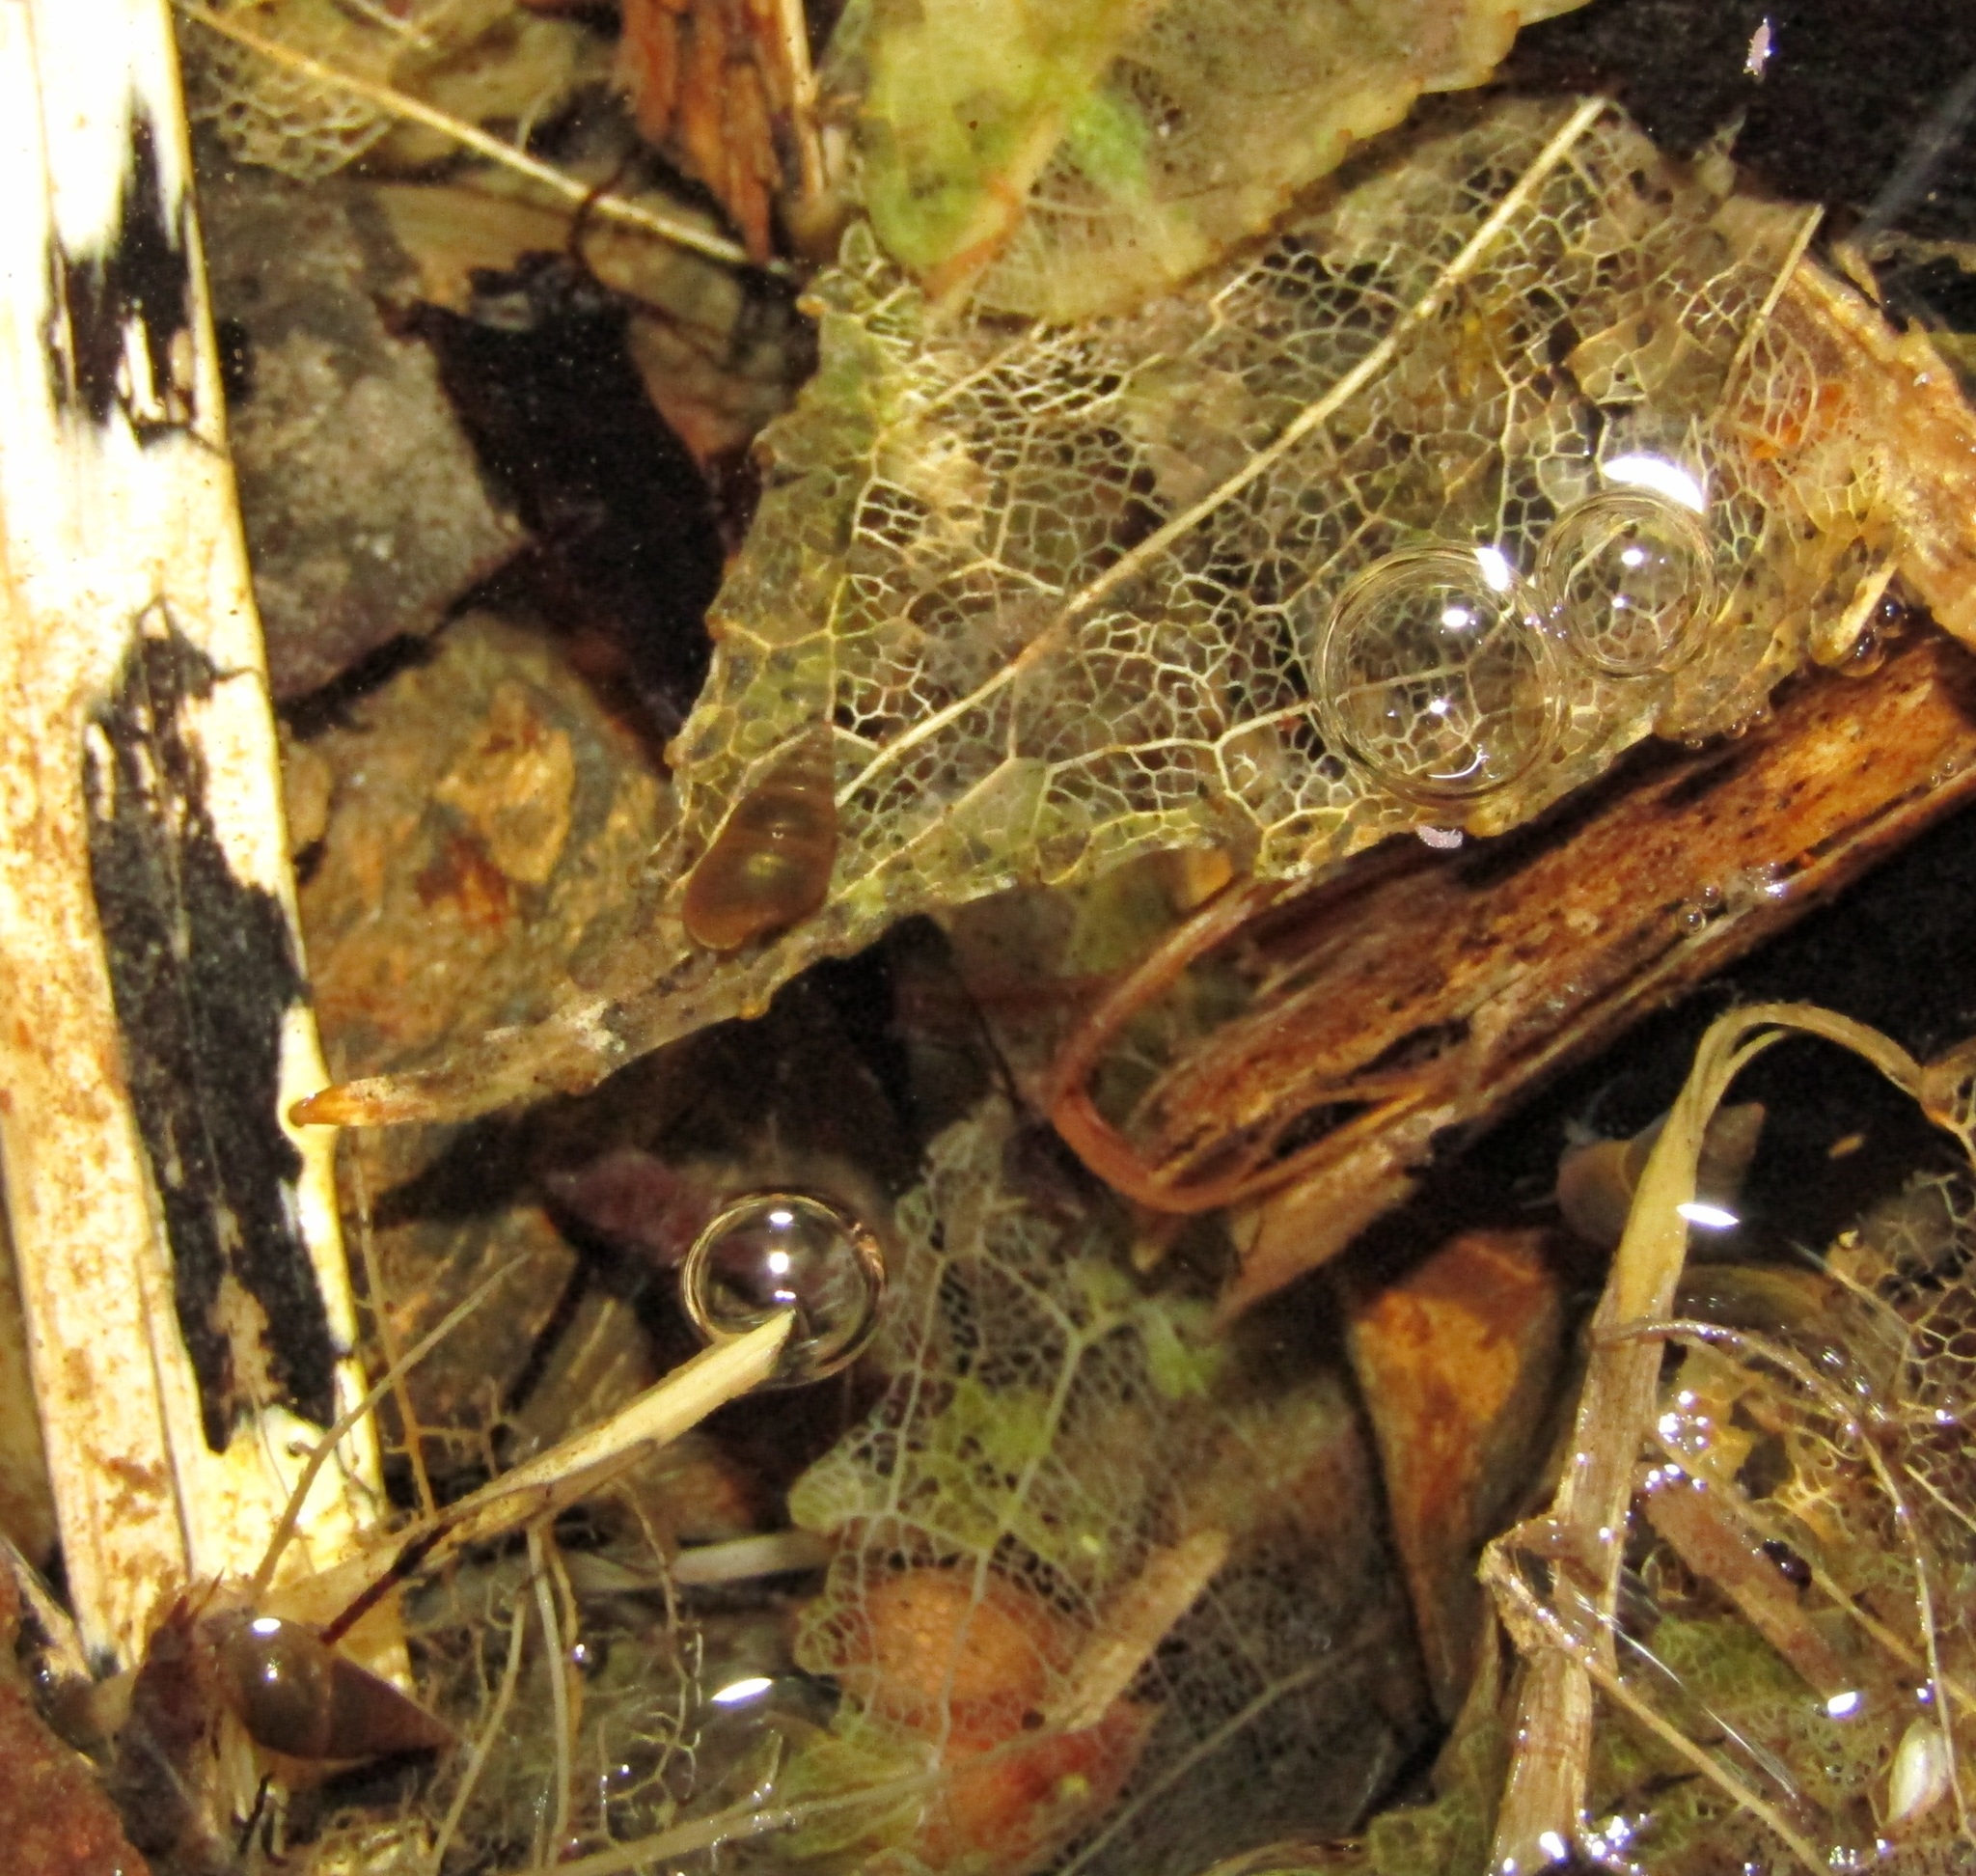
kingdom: Animalia
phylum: Mollusca
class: Gastropoda
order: Littorinimorpha
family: Tateidae
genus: Potamopyrgus
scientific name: Potamopyrgus antipodarum
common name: Jenkins' spire snail
